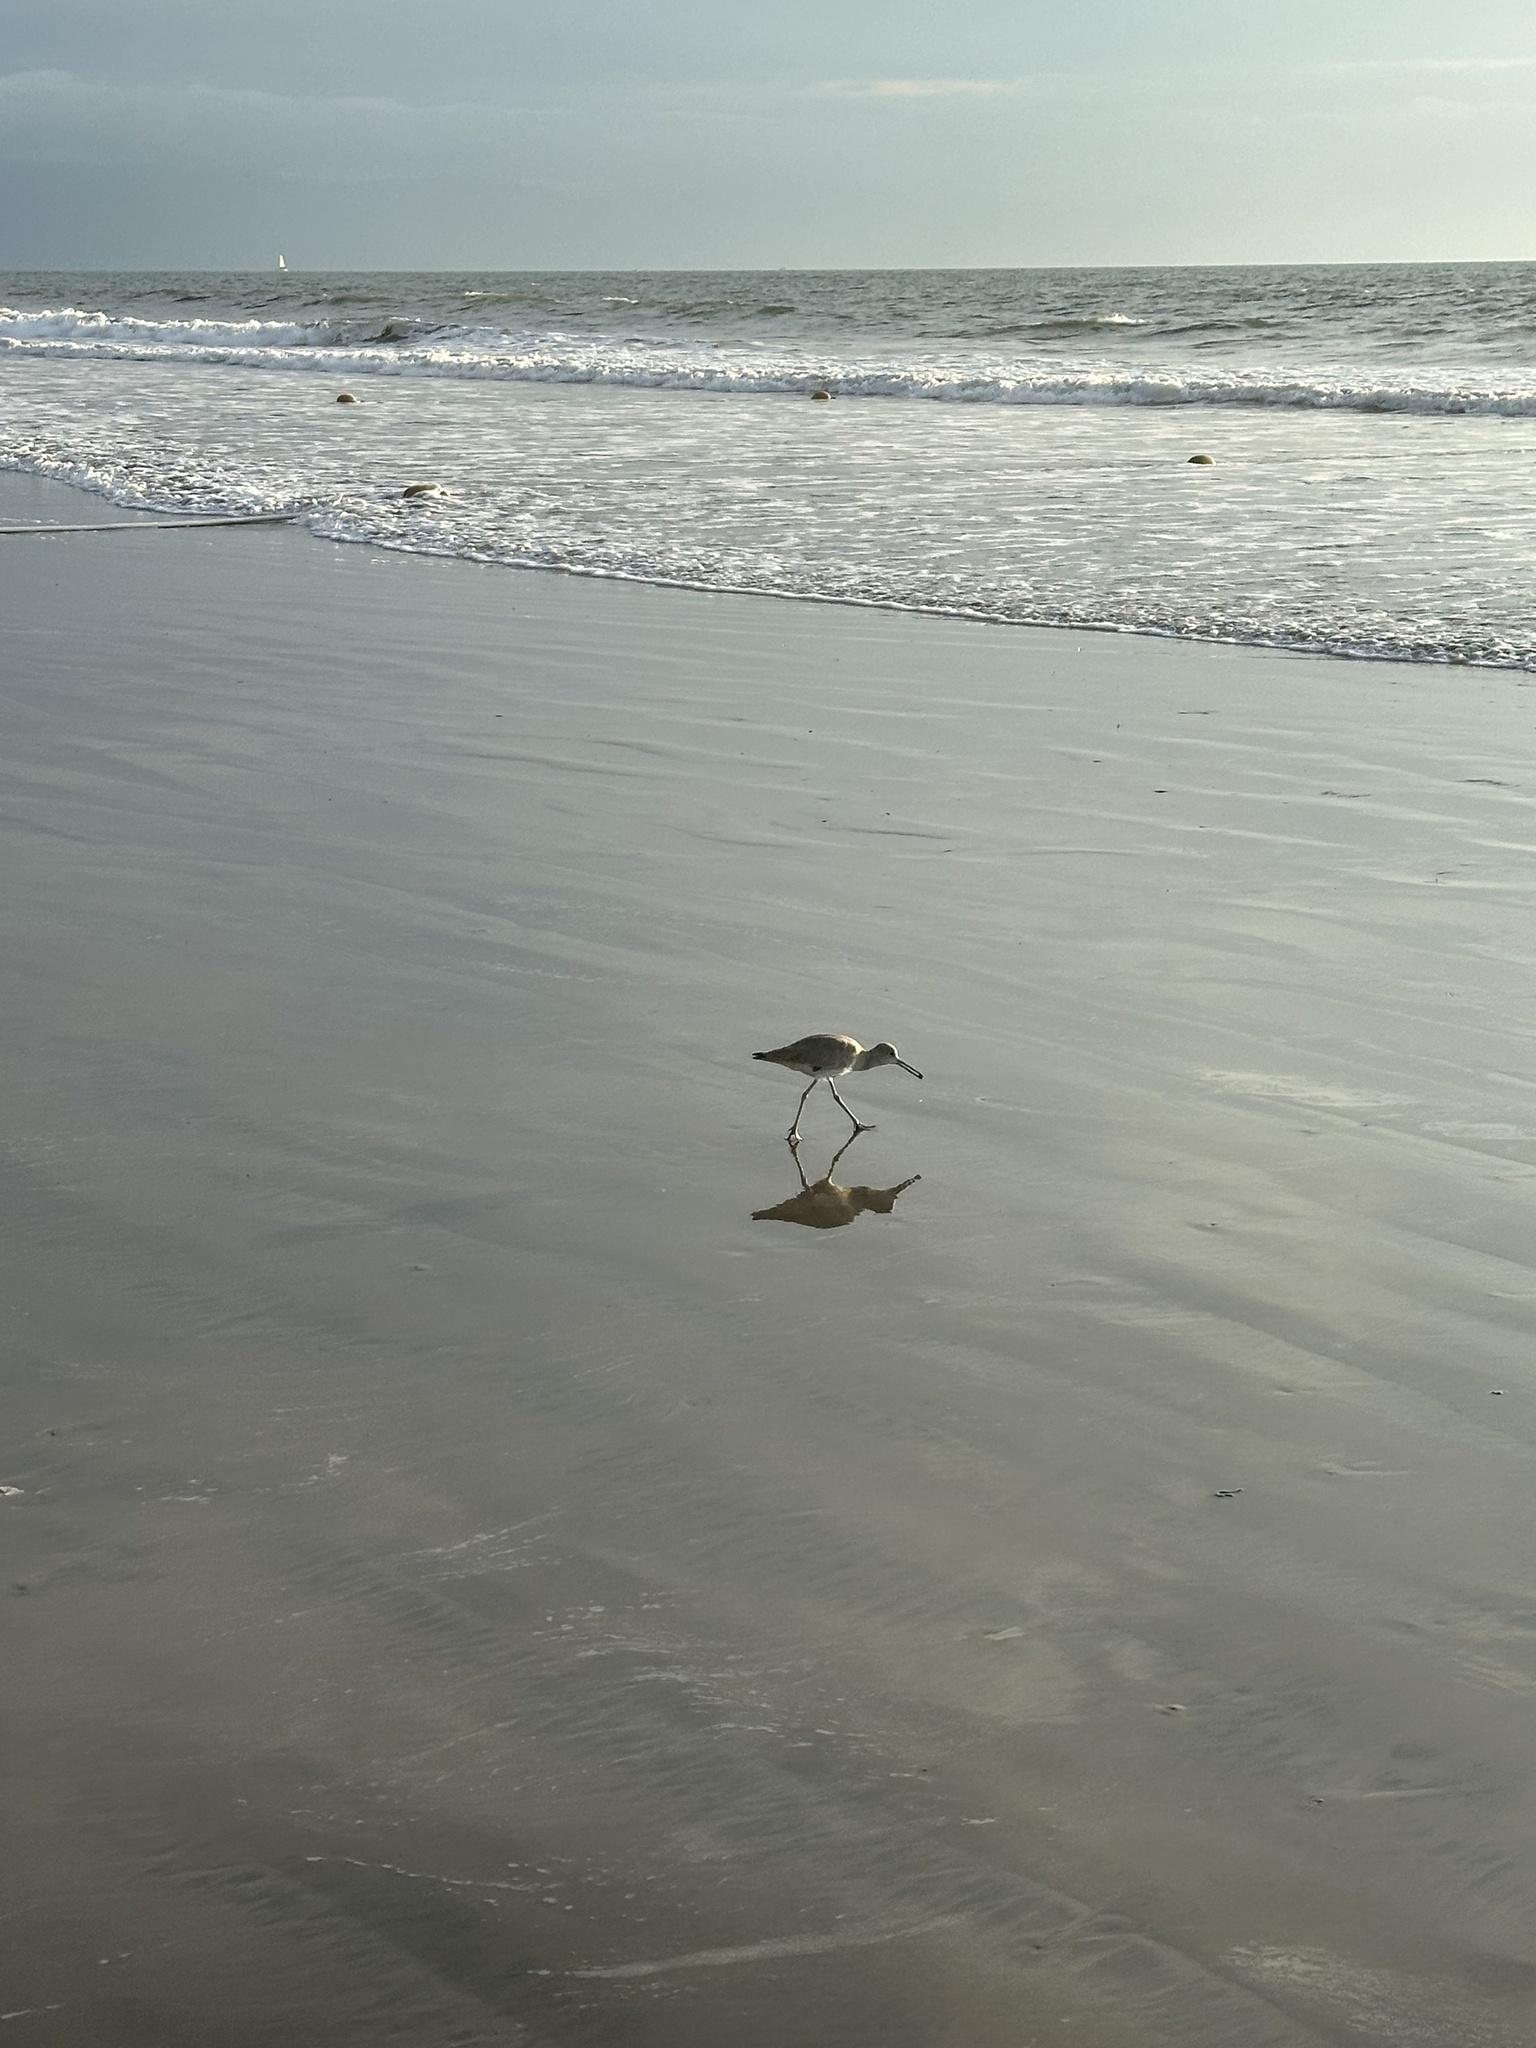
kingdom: Animalia
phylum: Chordata
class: Aves
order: Charadriiformes
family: Scolopacidae
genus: Tringa
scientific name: Tringa semipalmata
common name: Willet
